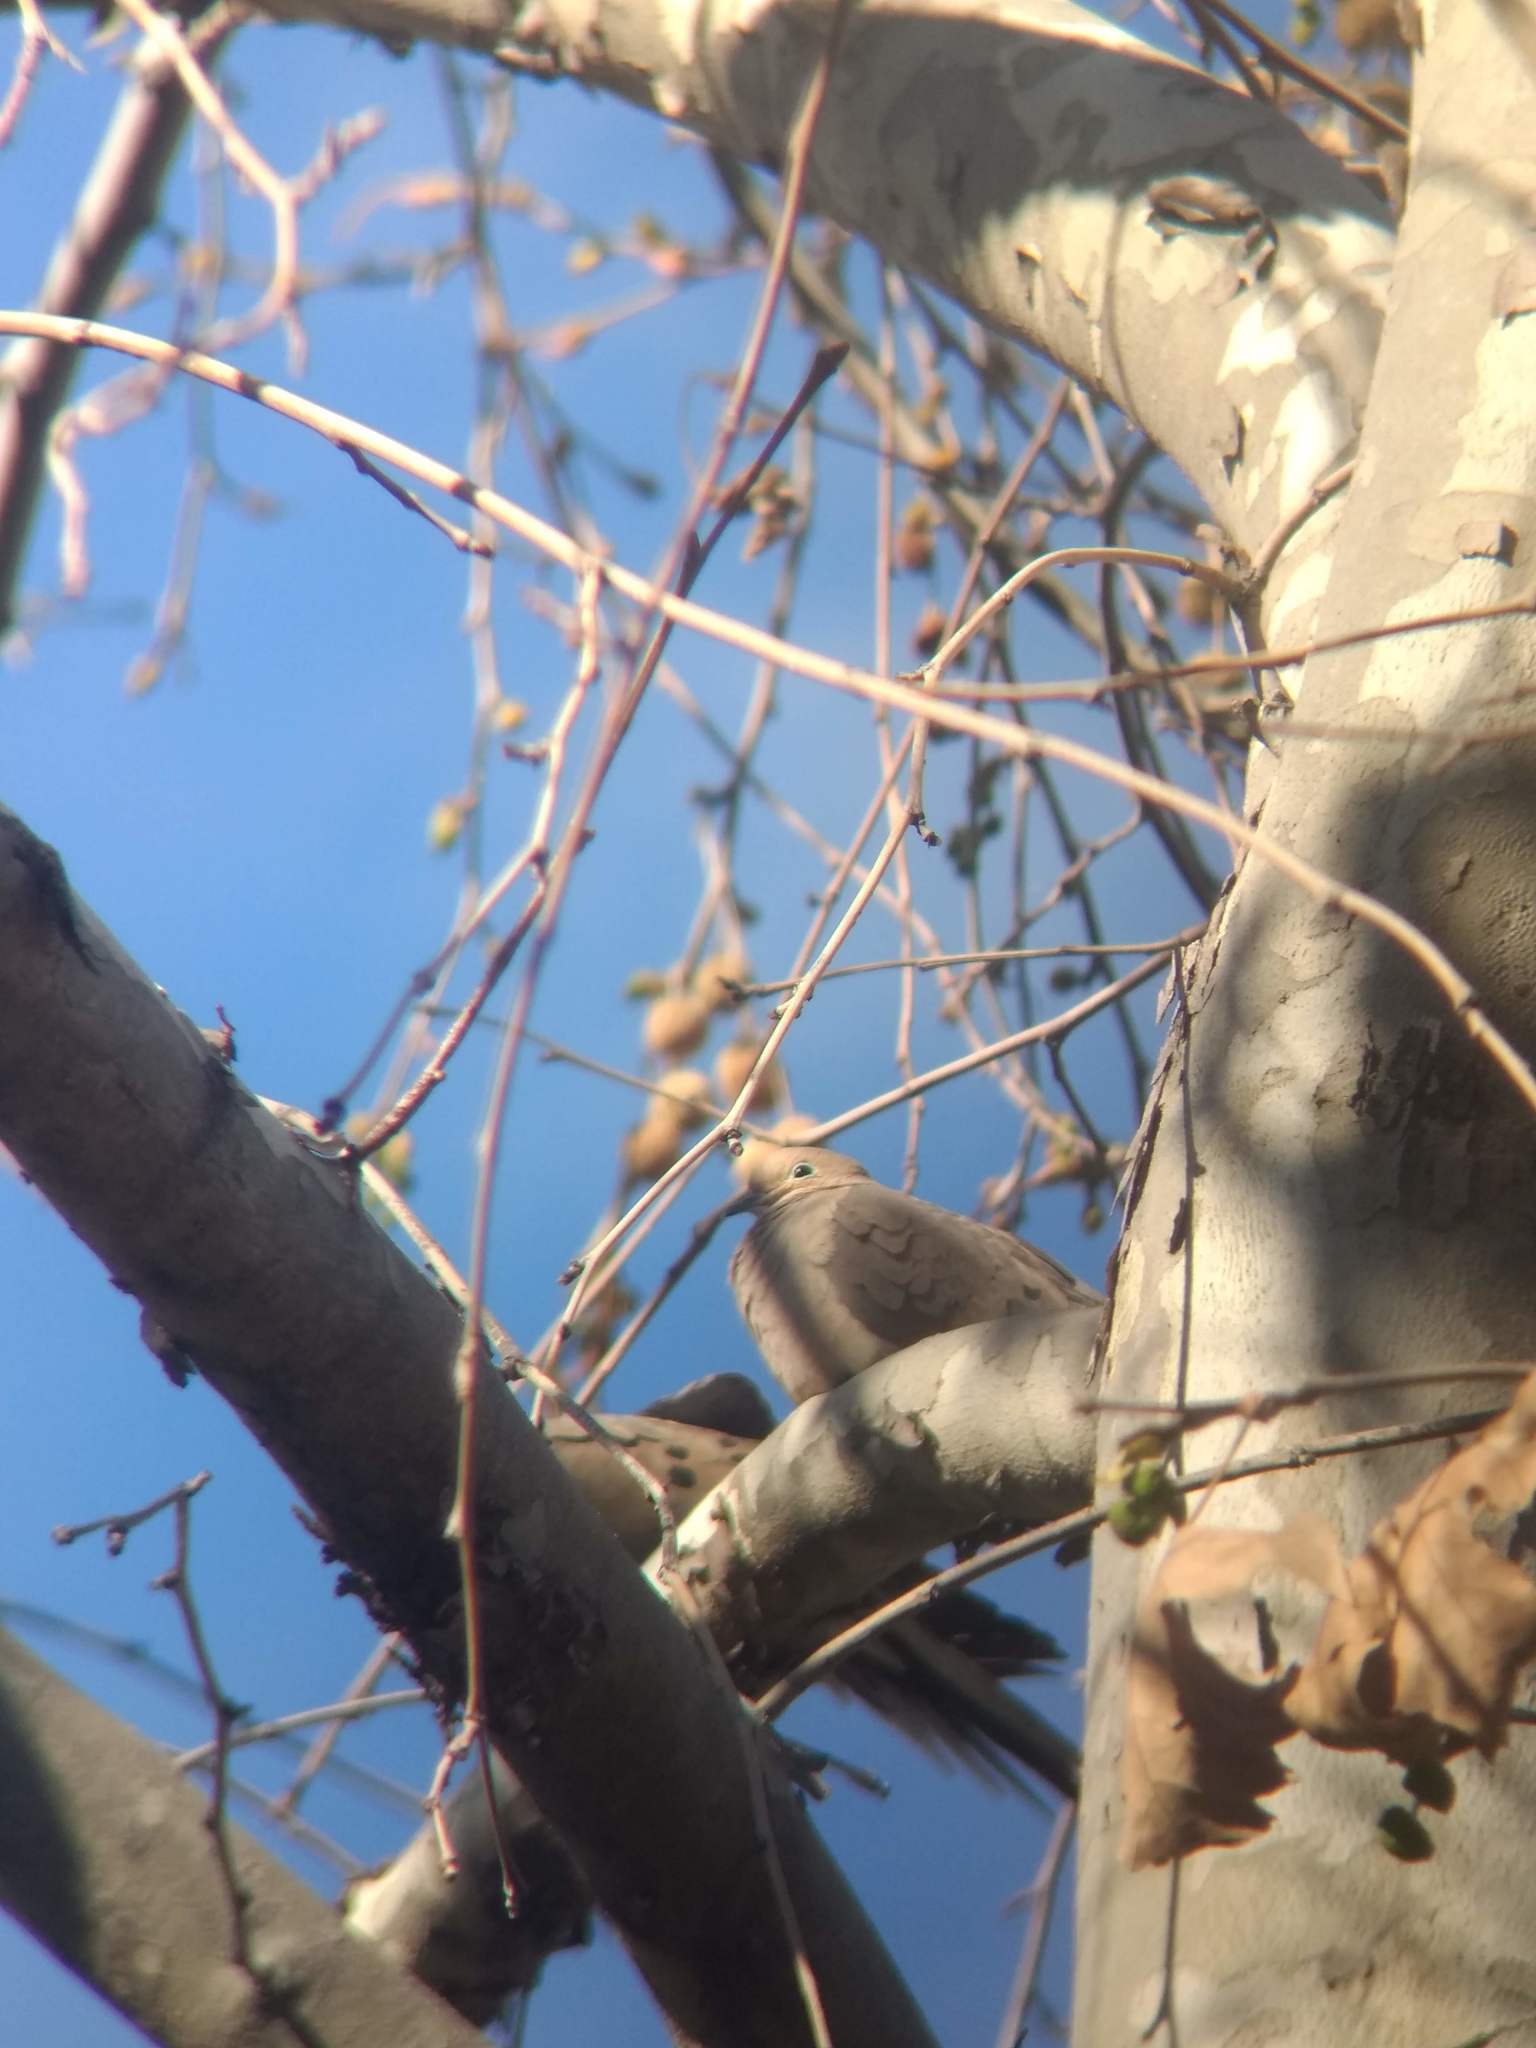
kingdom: Animalia
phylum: Chordata
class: Aves
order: Columbiformes
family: Columbidae
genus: Zenaida
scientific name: Zenaida macroura
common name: Mourning dove
